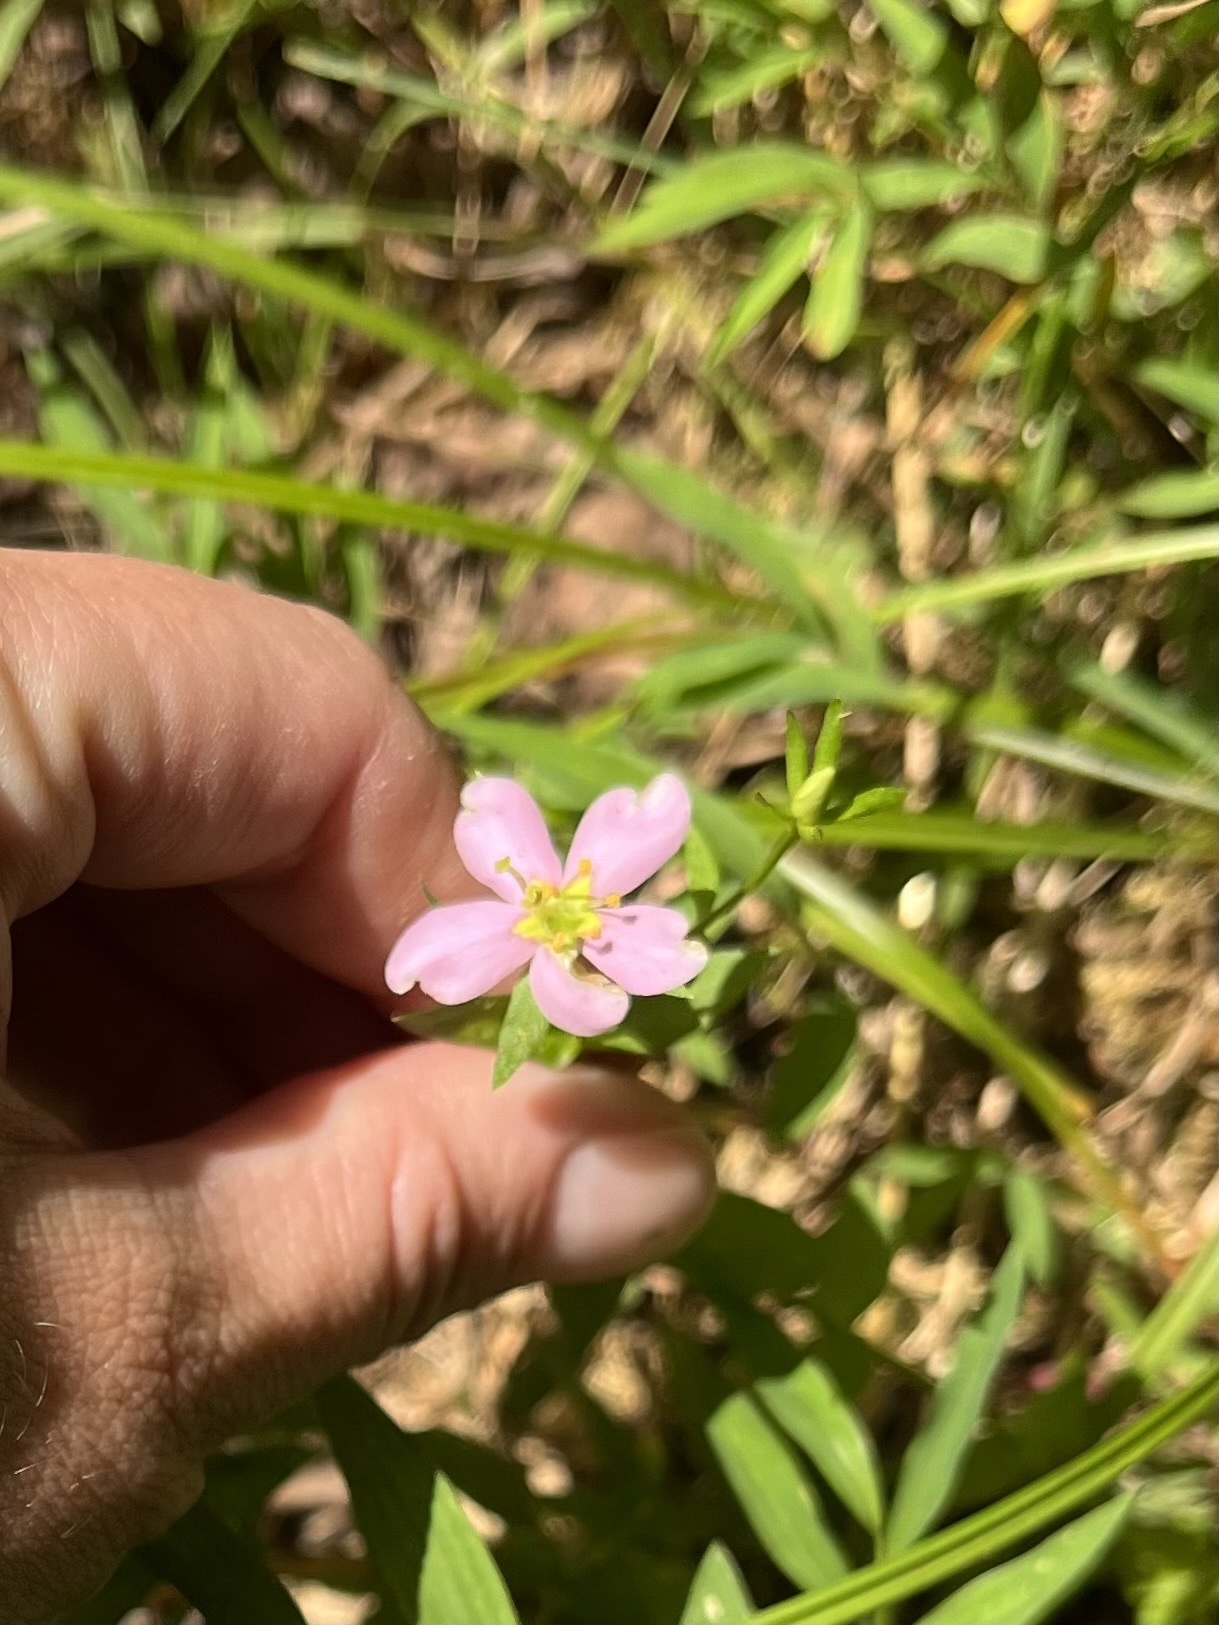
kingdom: Plantae
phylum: Tracheophyta
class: Magnoliopsida
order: Gentianales
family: Gentianaceae
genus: Sabatia
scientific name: Sabatia angularis
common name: Rose-pink
